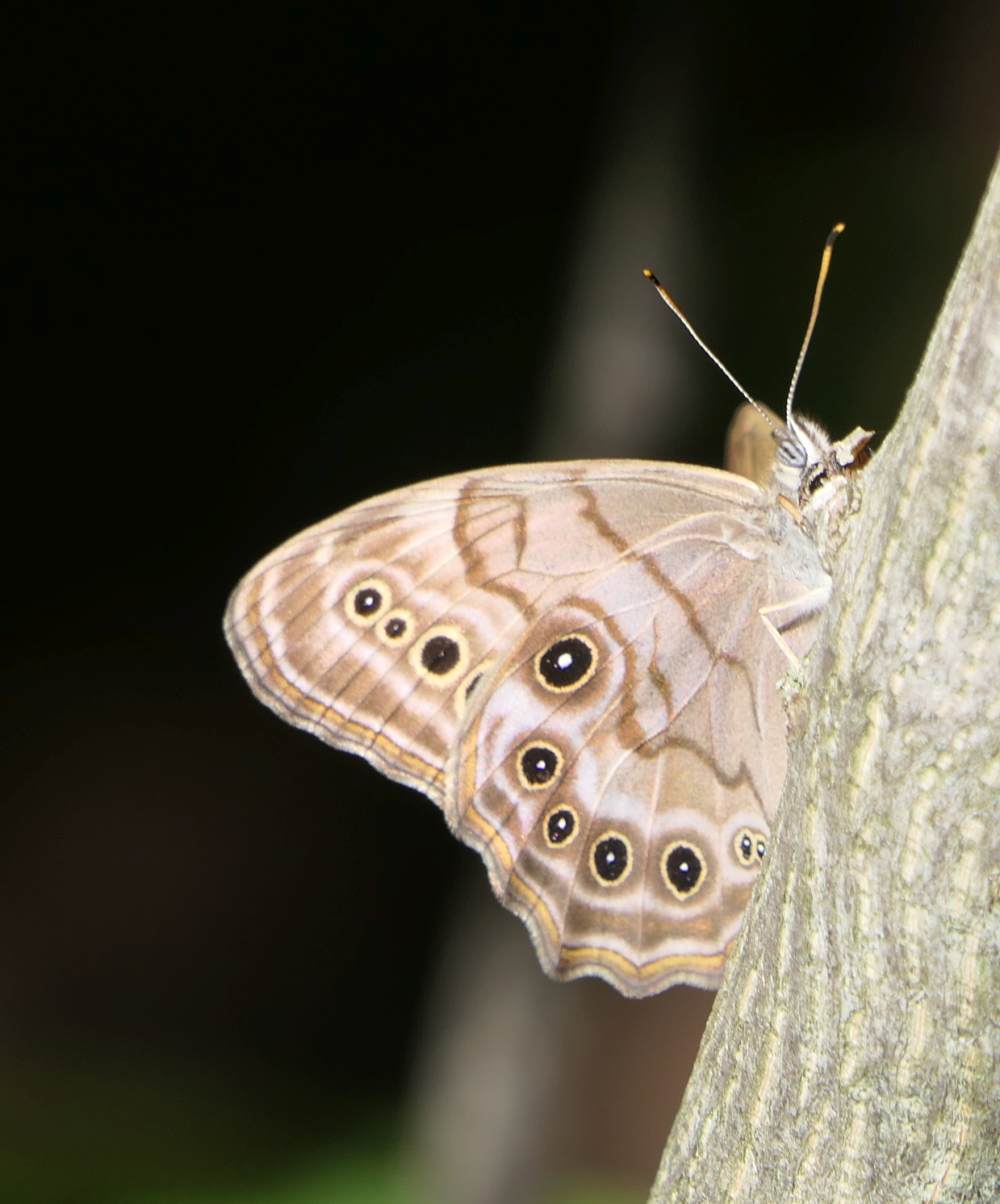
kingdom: Animalia
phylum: Arthropoda
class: Insecta
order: Lepidoptera
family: Nymphalidae
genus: Lethe
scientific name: Lethe anthedon
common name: Northern pearly-eye
